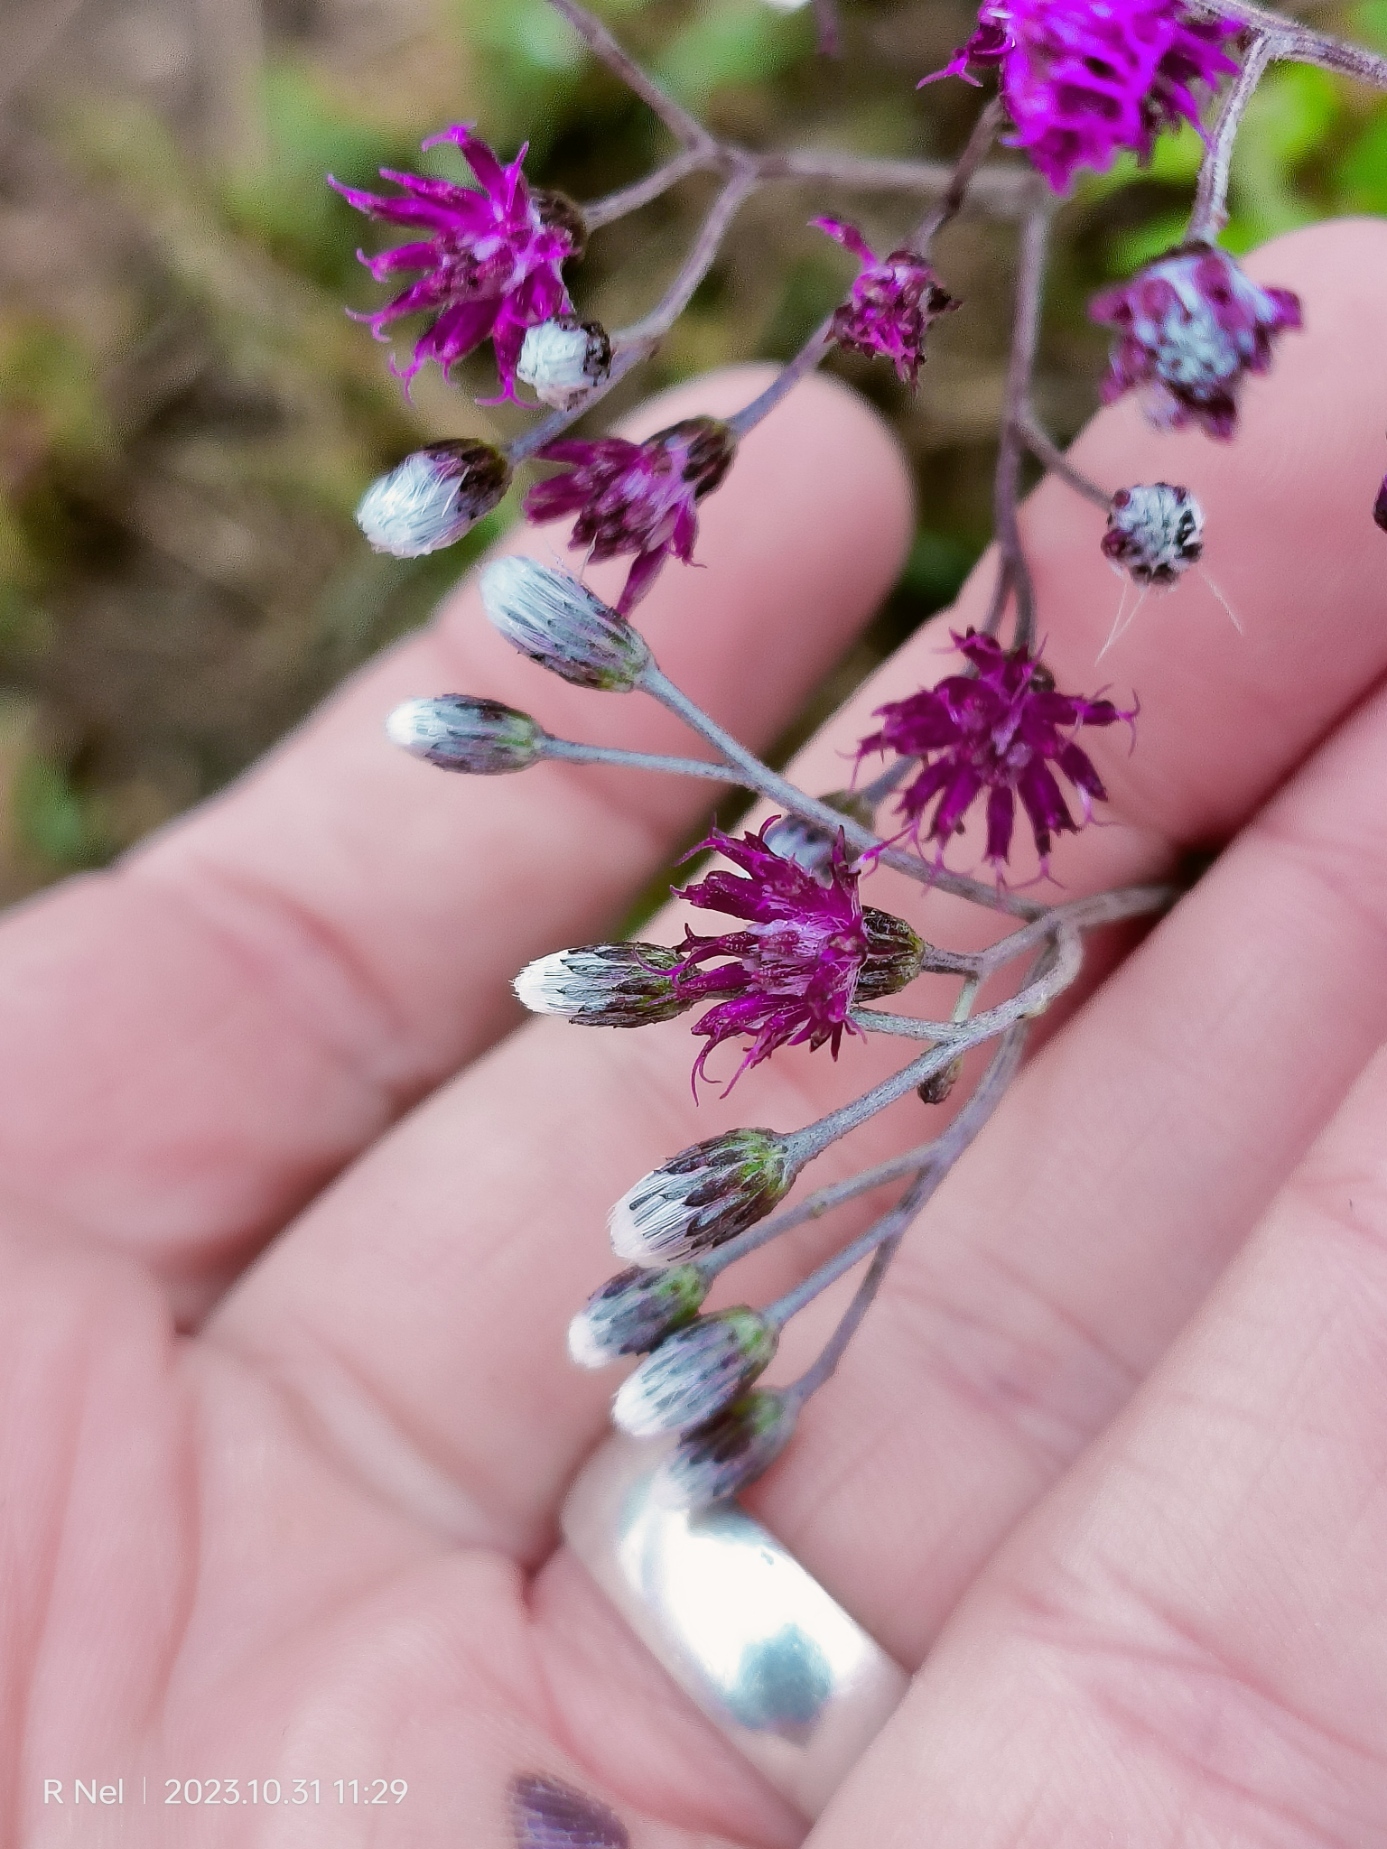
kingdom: Plantae
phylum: Tracheophyta
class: Magnoliopsida
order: Asterales
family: Asteraceae
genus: Hilliardiella
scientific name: Hilliardiella oligocephala
